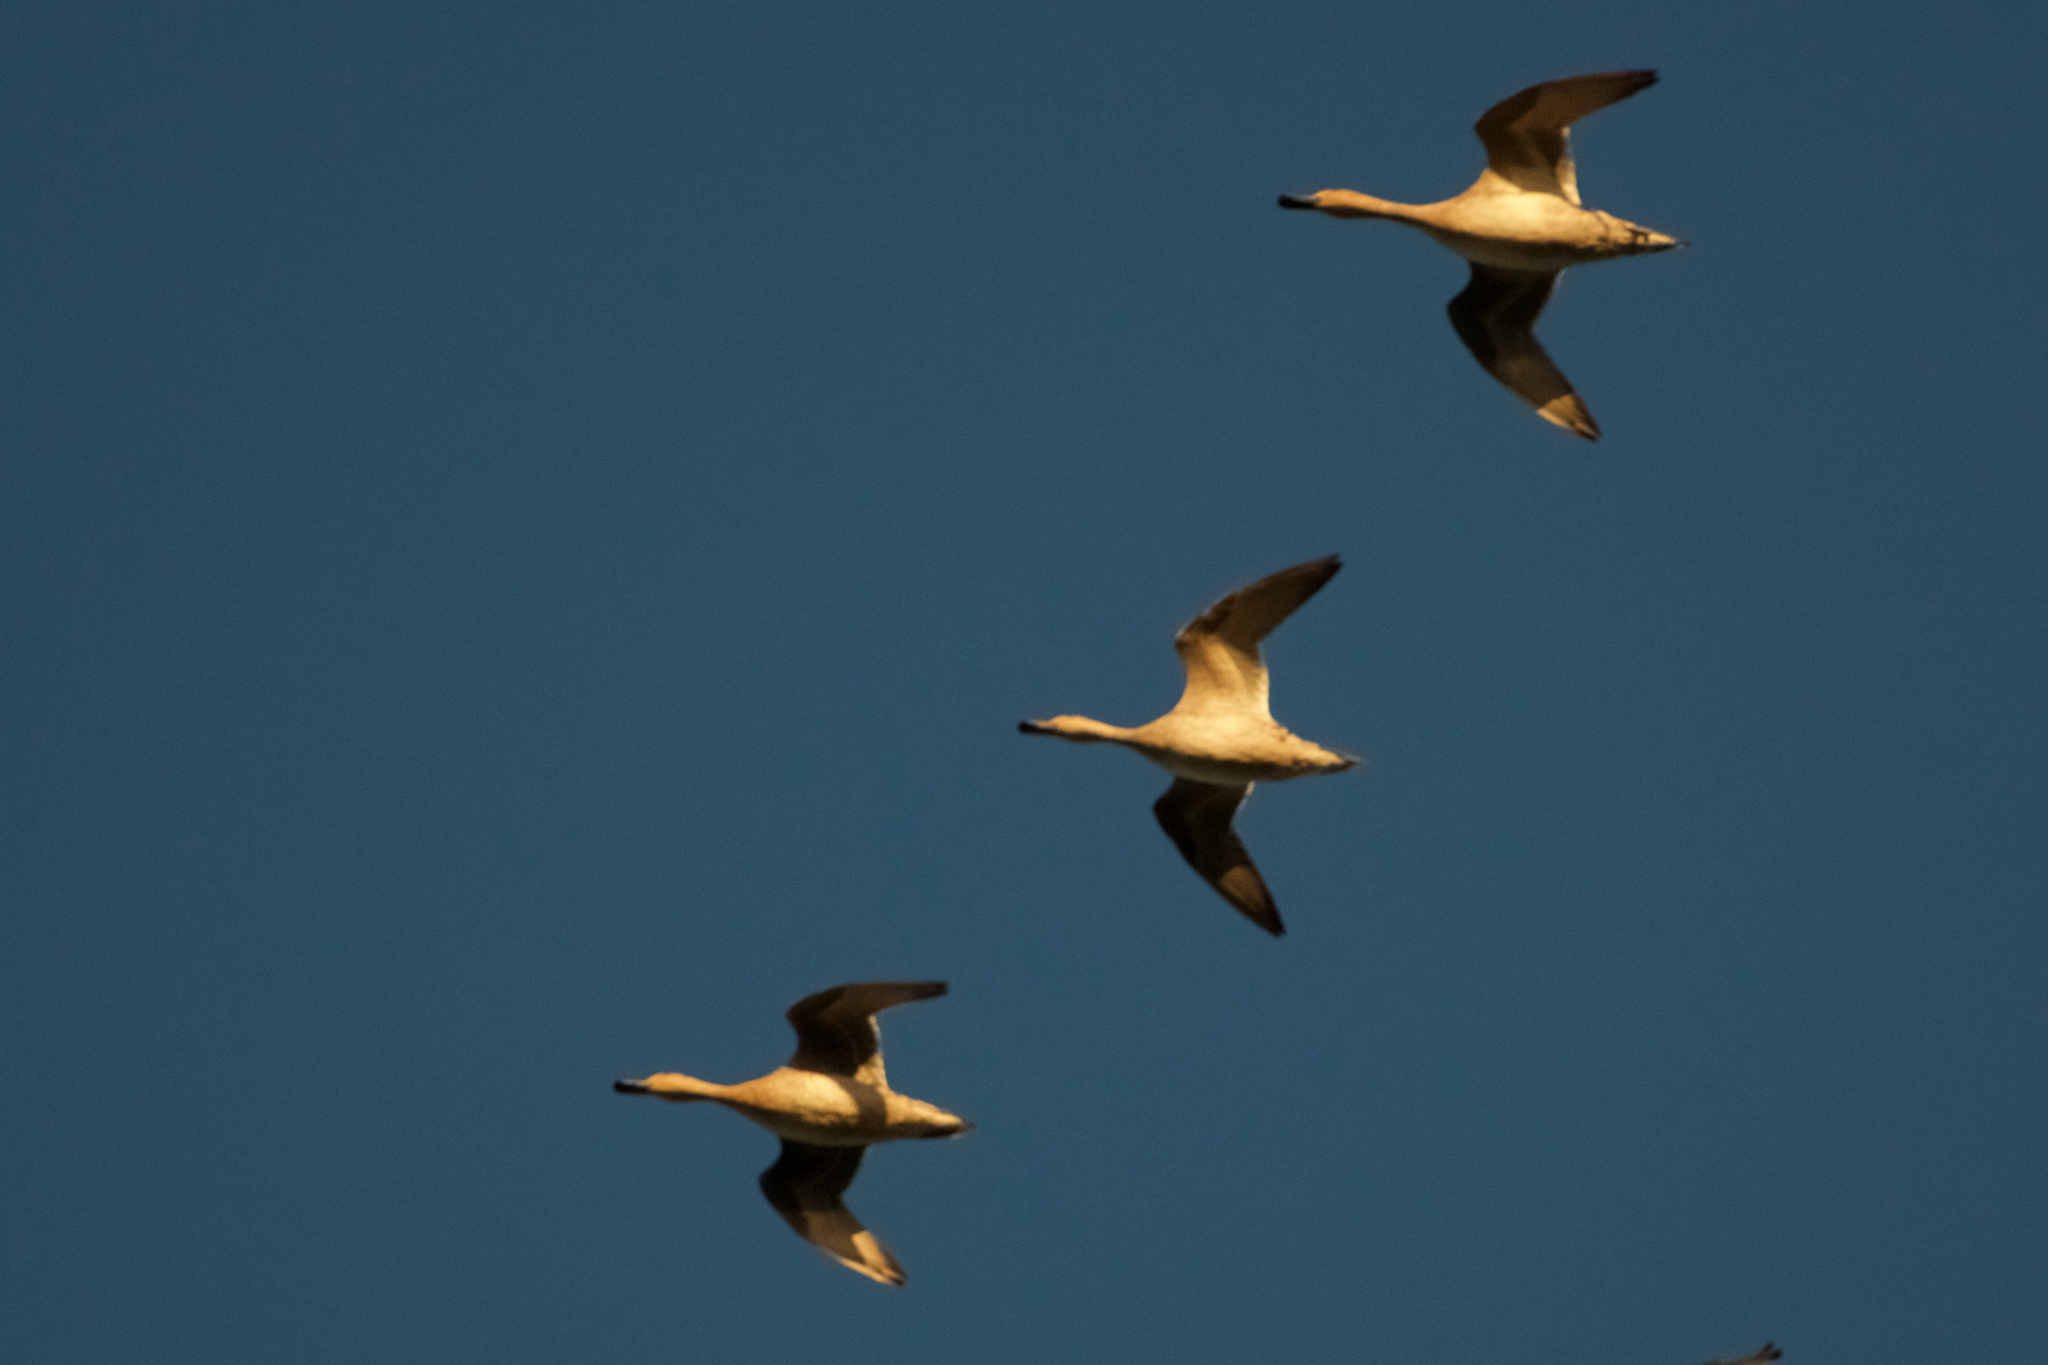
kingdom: Animalia
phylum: Chordata
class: Aves
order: Anseriformes
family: Anatidae
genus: Anas
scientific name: Anas acuta
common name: Northern pintail
